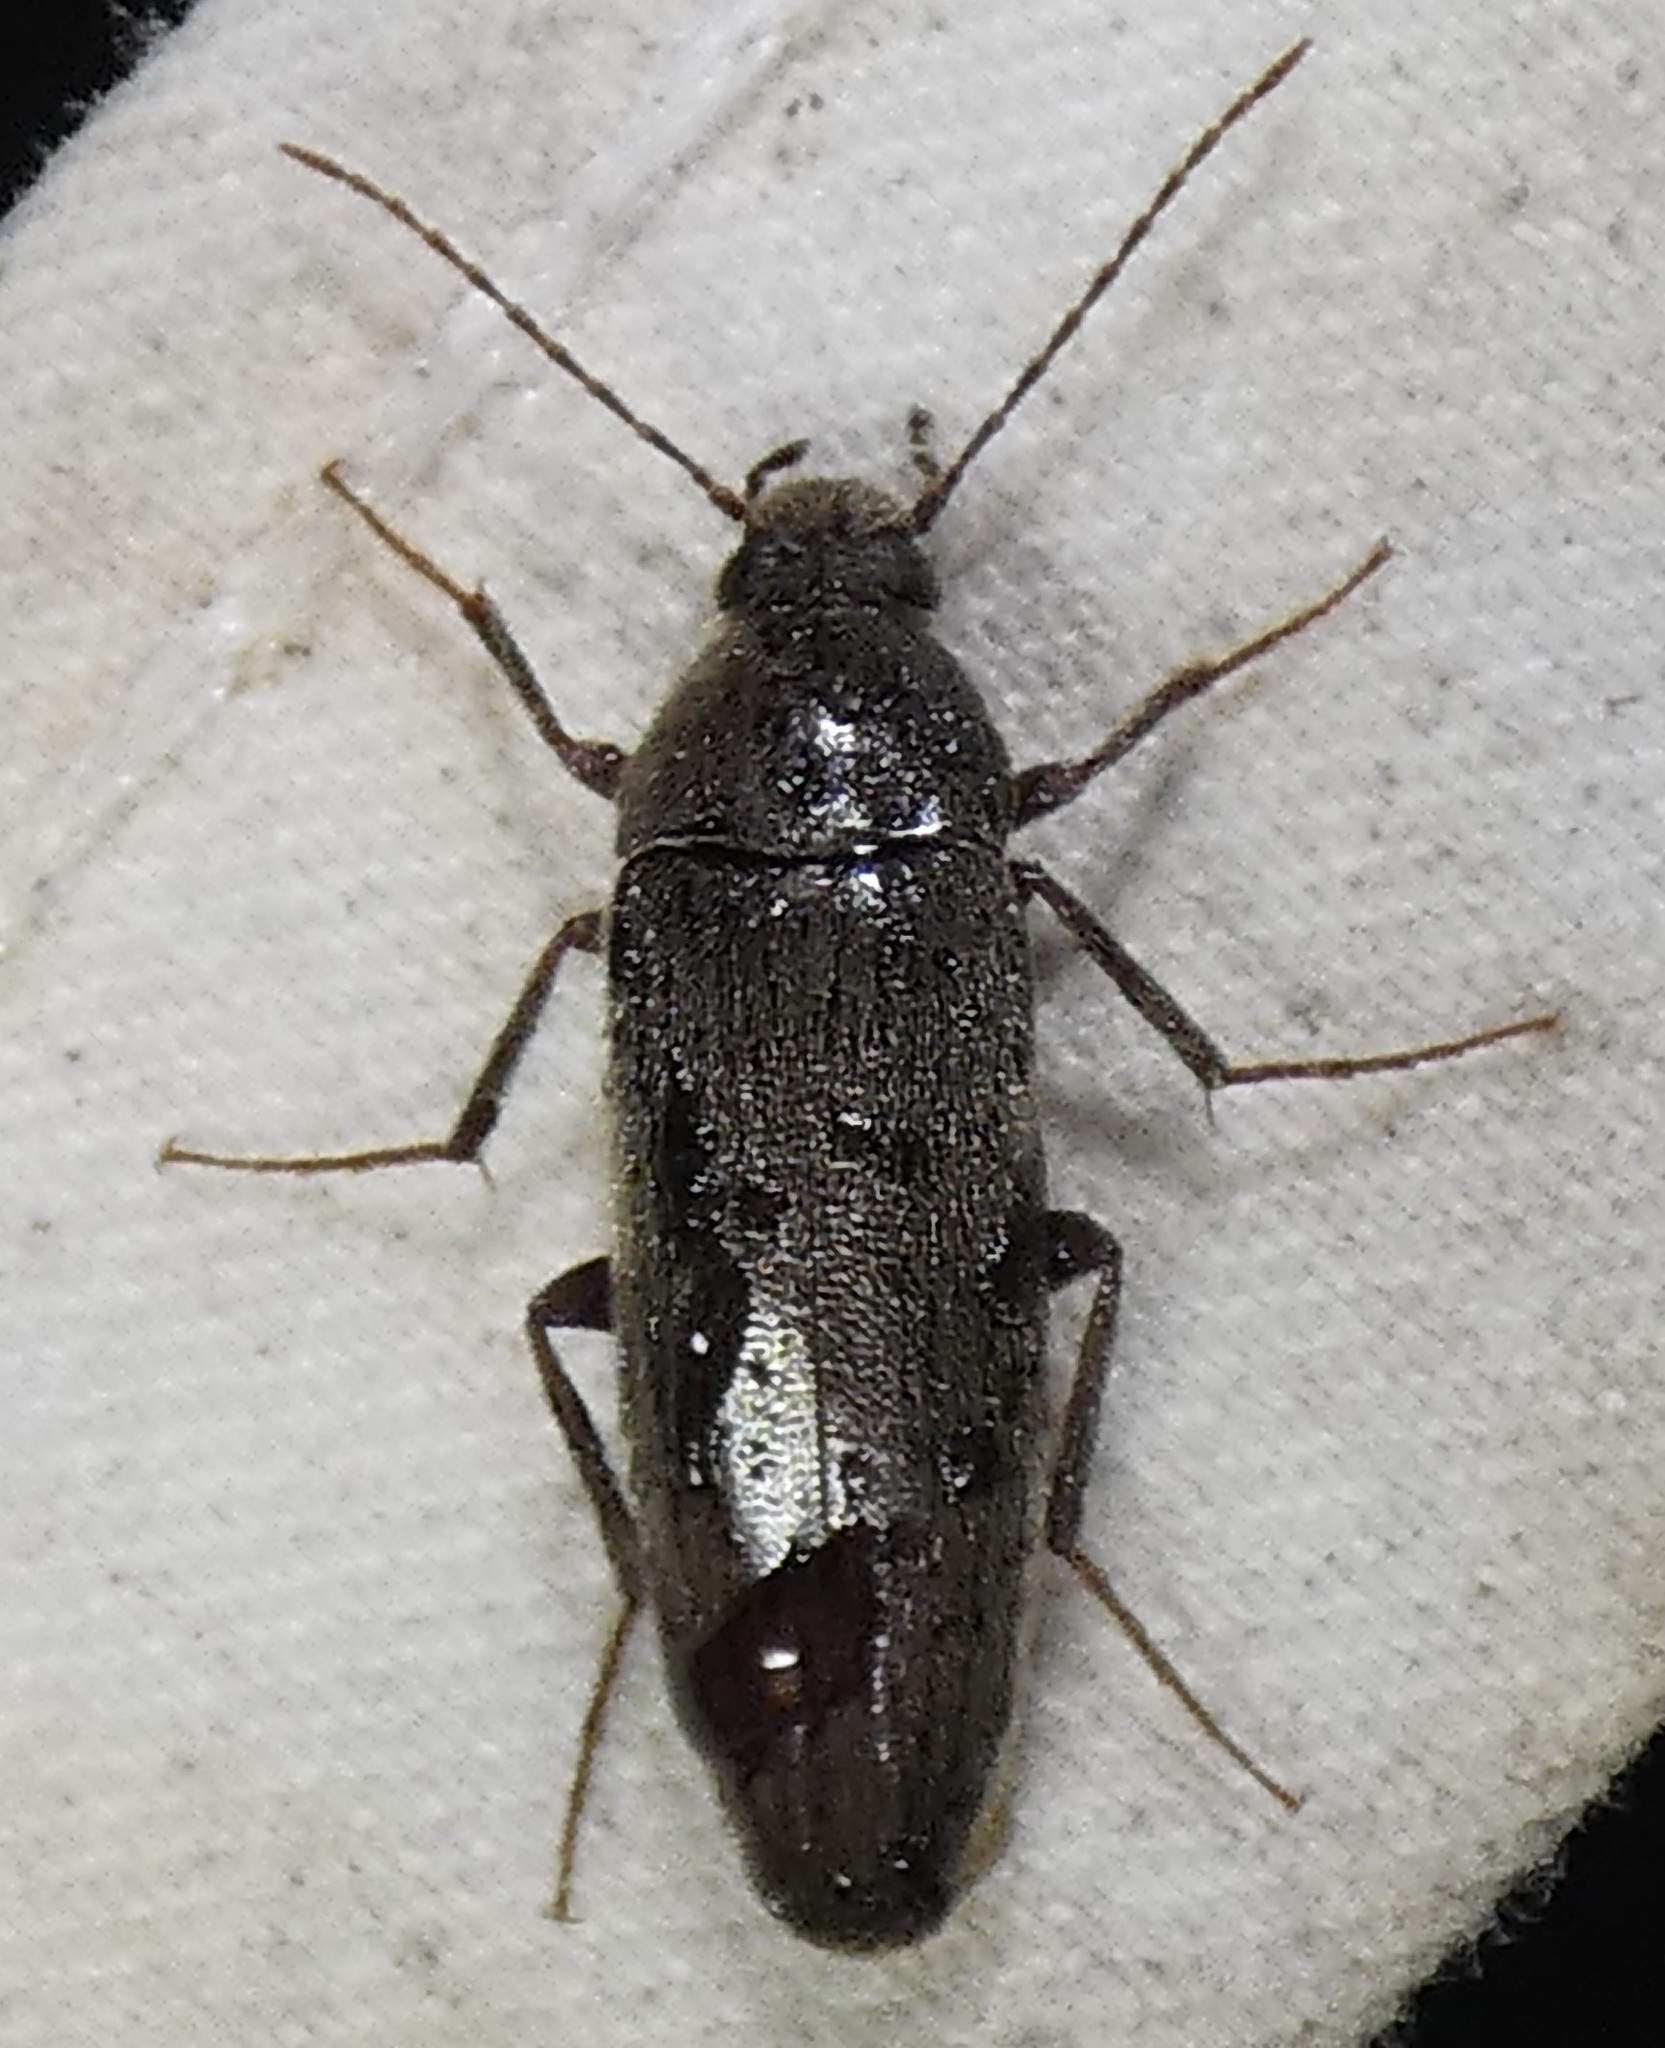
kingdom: Animalia
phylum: Arthropoda
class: Insecta
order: Coleoptera
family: Synchroidae
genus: Synchroa
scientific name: Synchroa punctata
